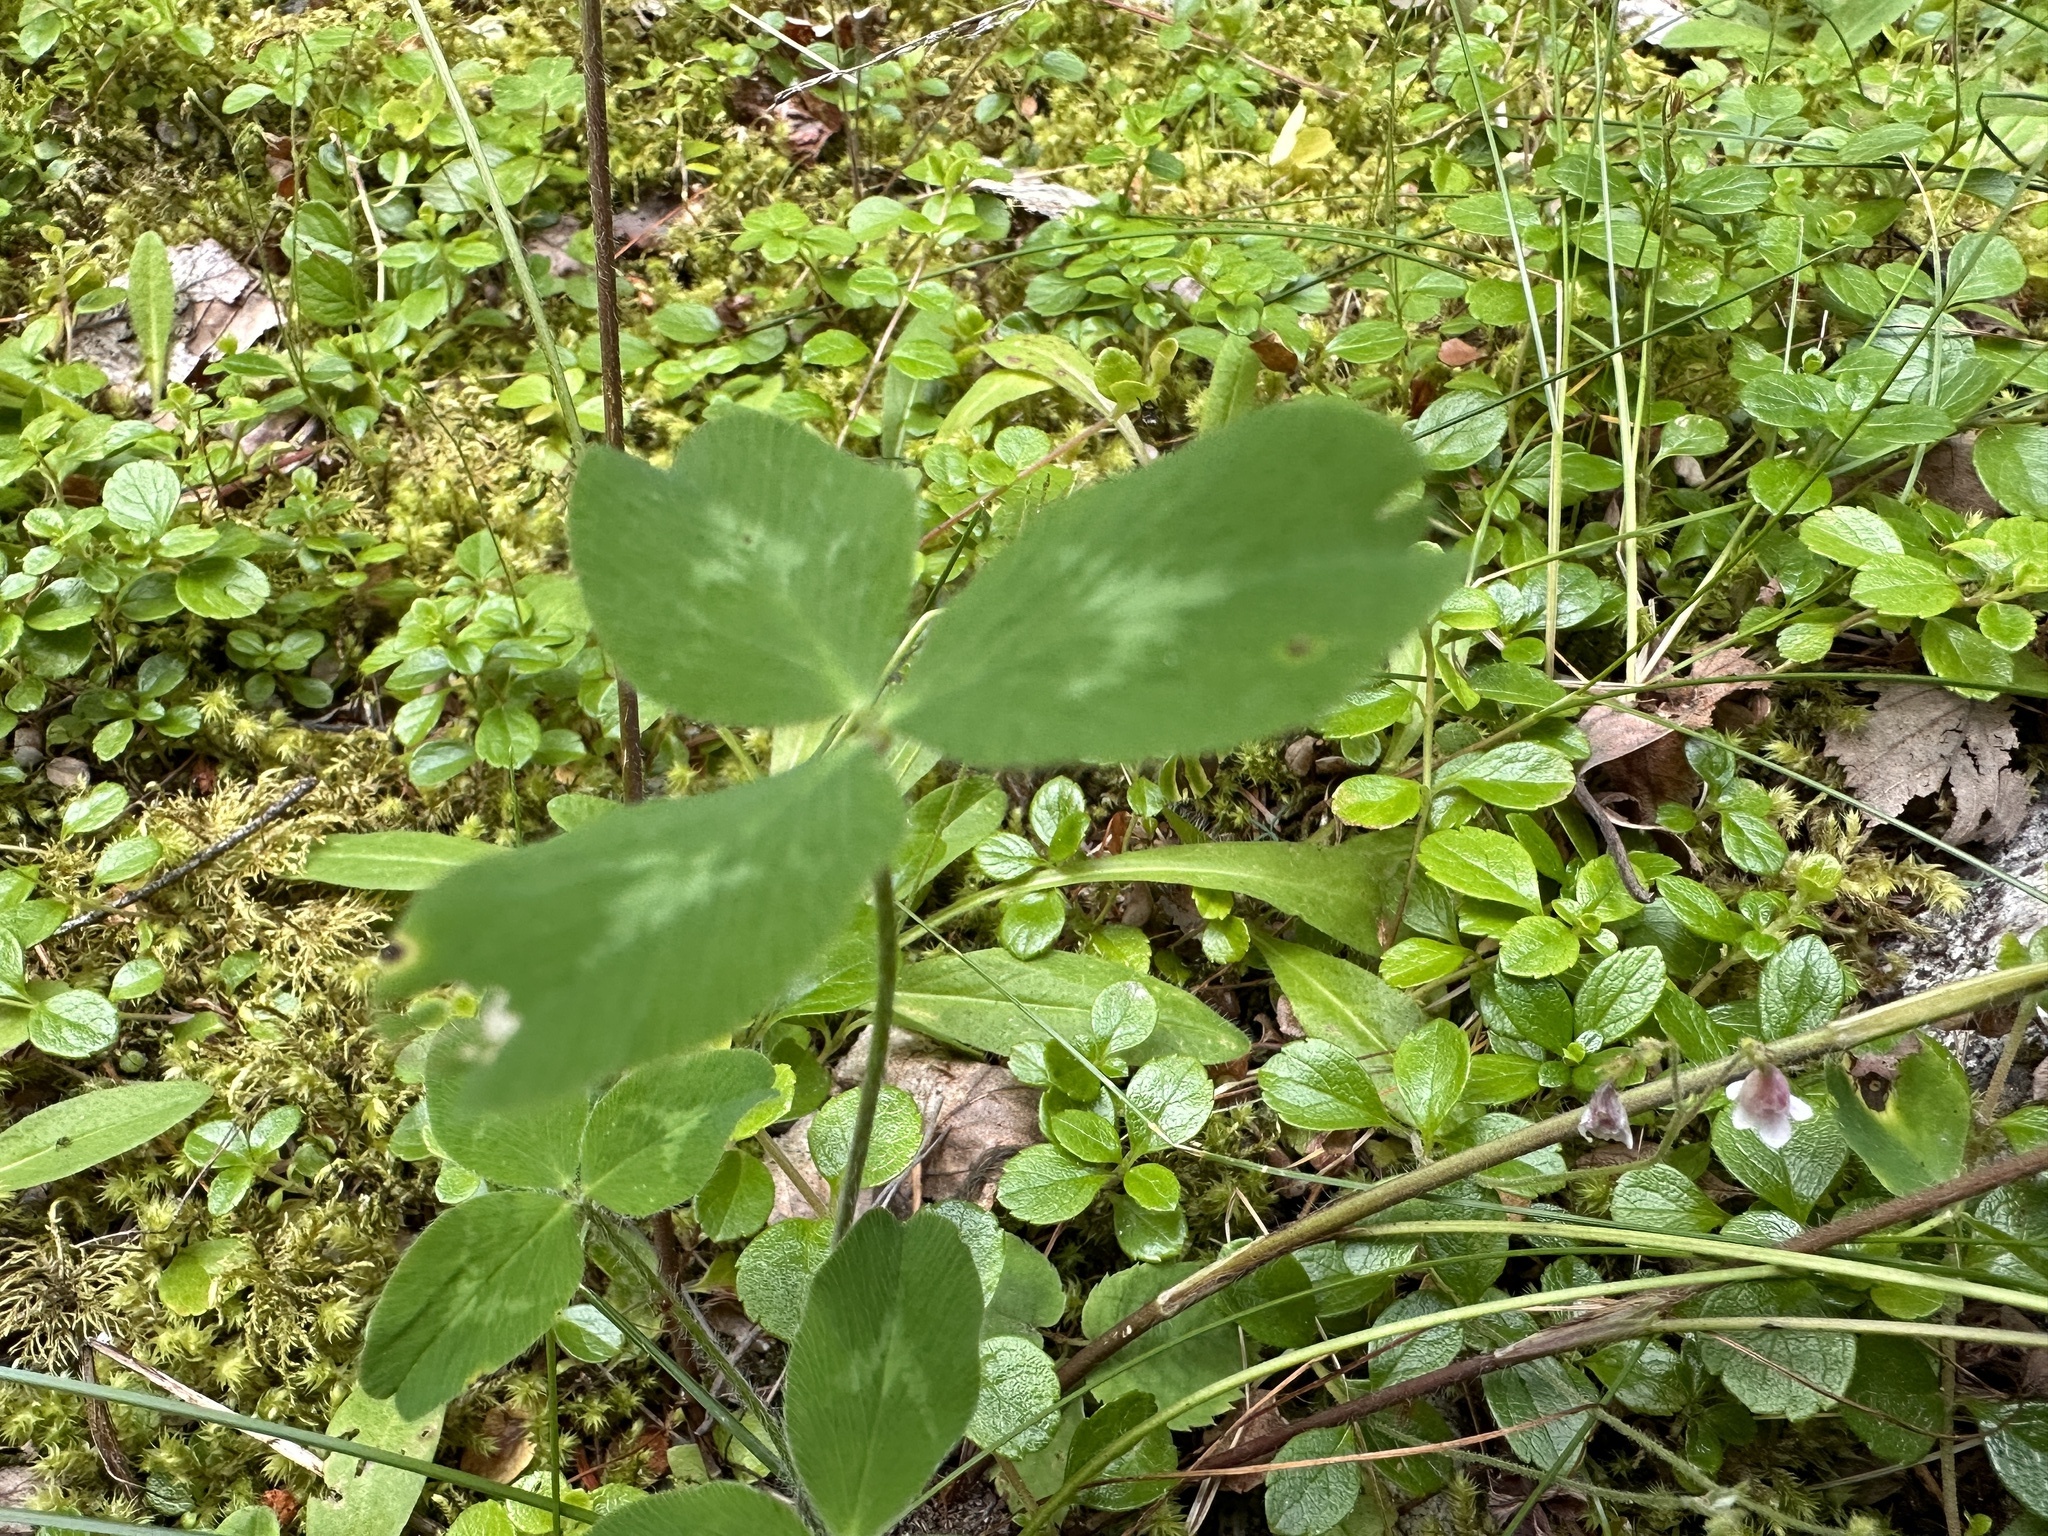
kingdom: Plantae
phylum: Tracheophyta
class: Magnoliopsida
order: Fabales
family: Fabaceae
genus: Trifolium
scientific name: Trifolium pratense
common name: Red clover
